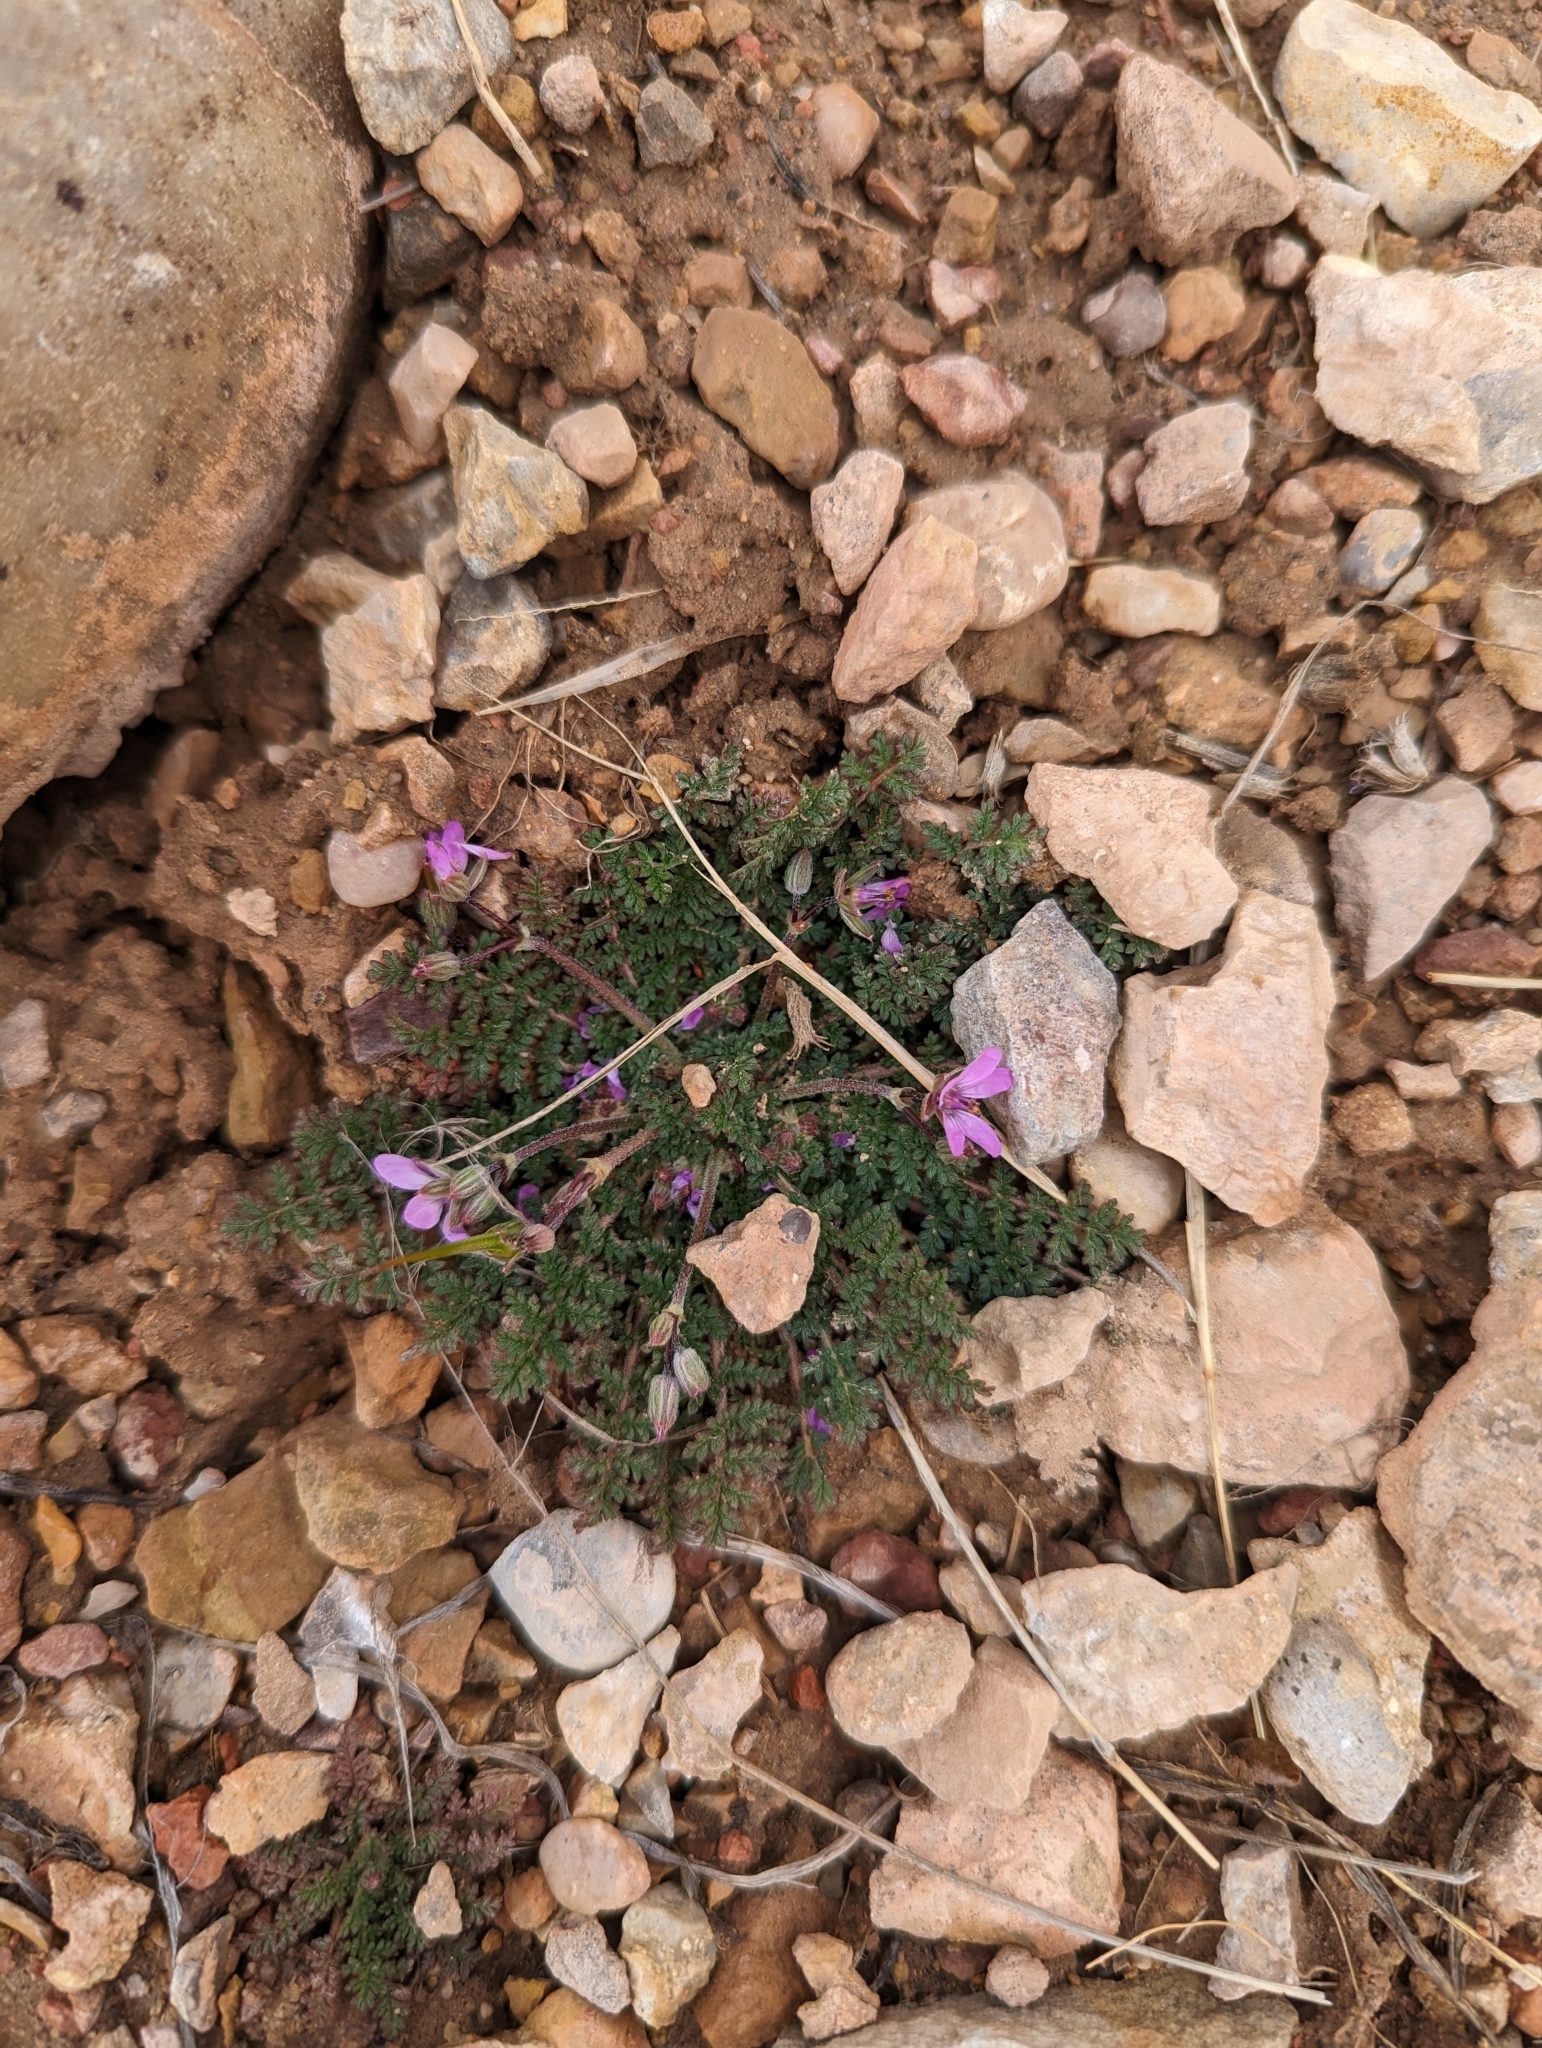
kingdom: Plantae
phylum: Tracheophyta
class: Magnoliopsida
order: Geraniales
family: Geraniaceae
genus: Erodium
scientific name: Erodium cicutarium
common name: Common stork's-bill
